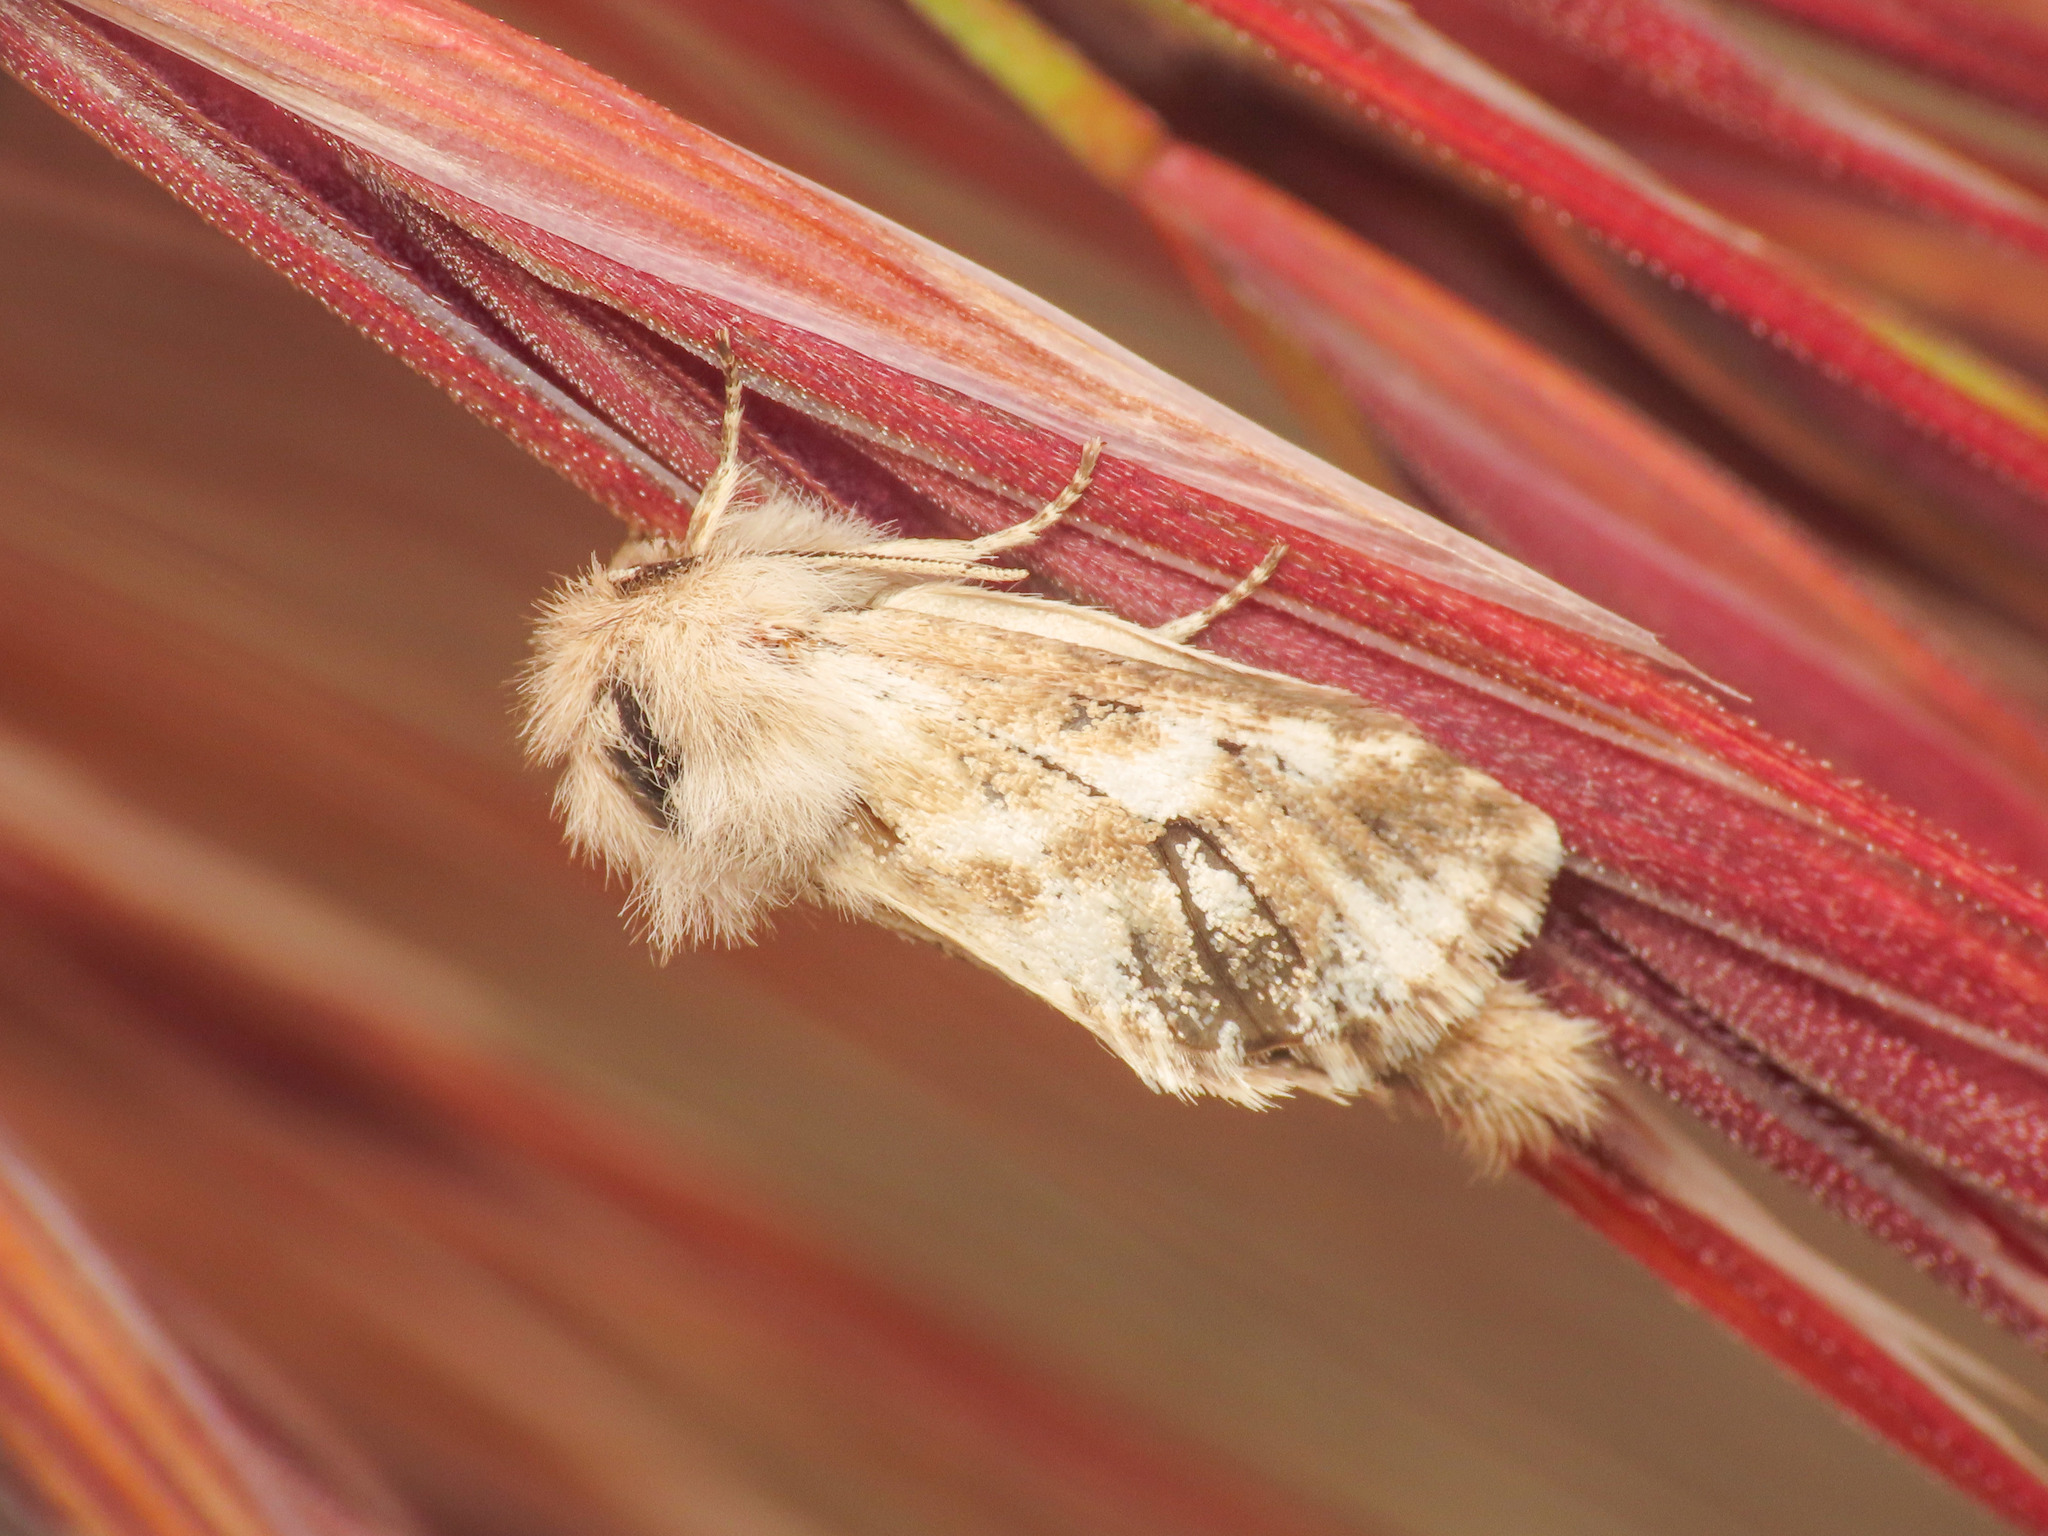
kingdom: Animalia
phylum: Arthropoda
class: Insecta
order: Lepidoptera
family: Cossidae
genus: Dyspessa
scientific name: Dyspessa ulula
